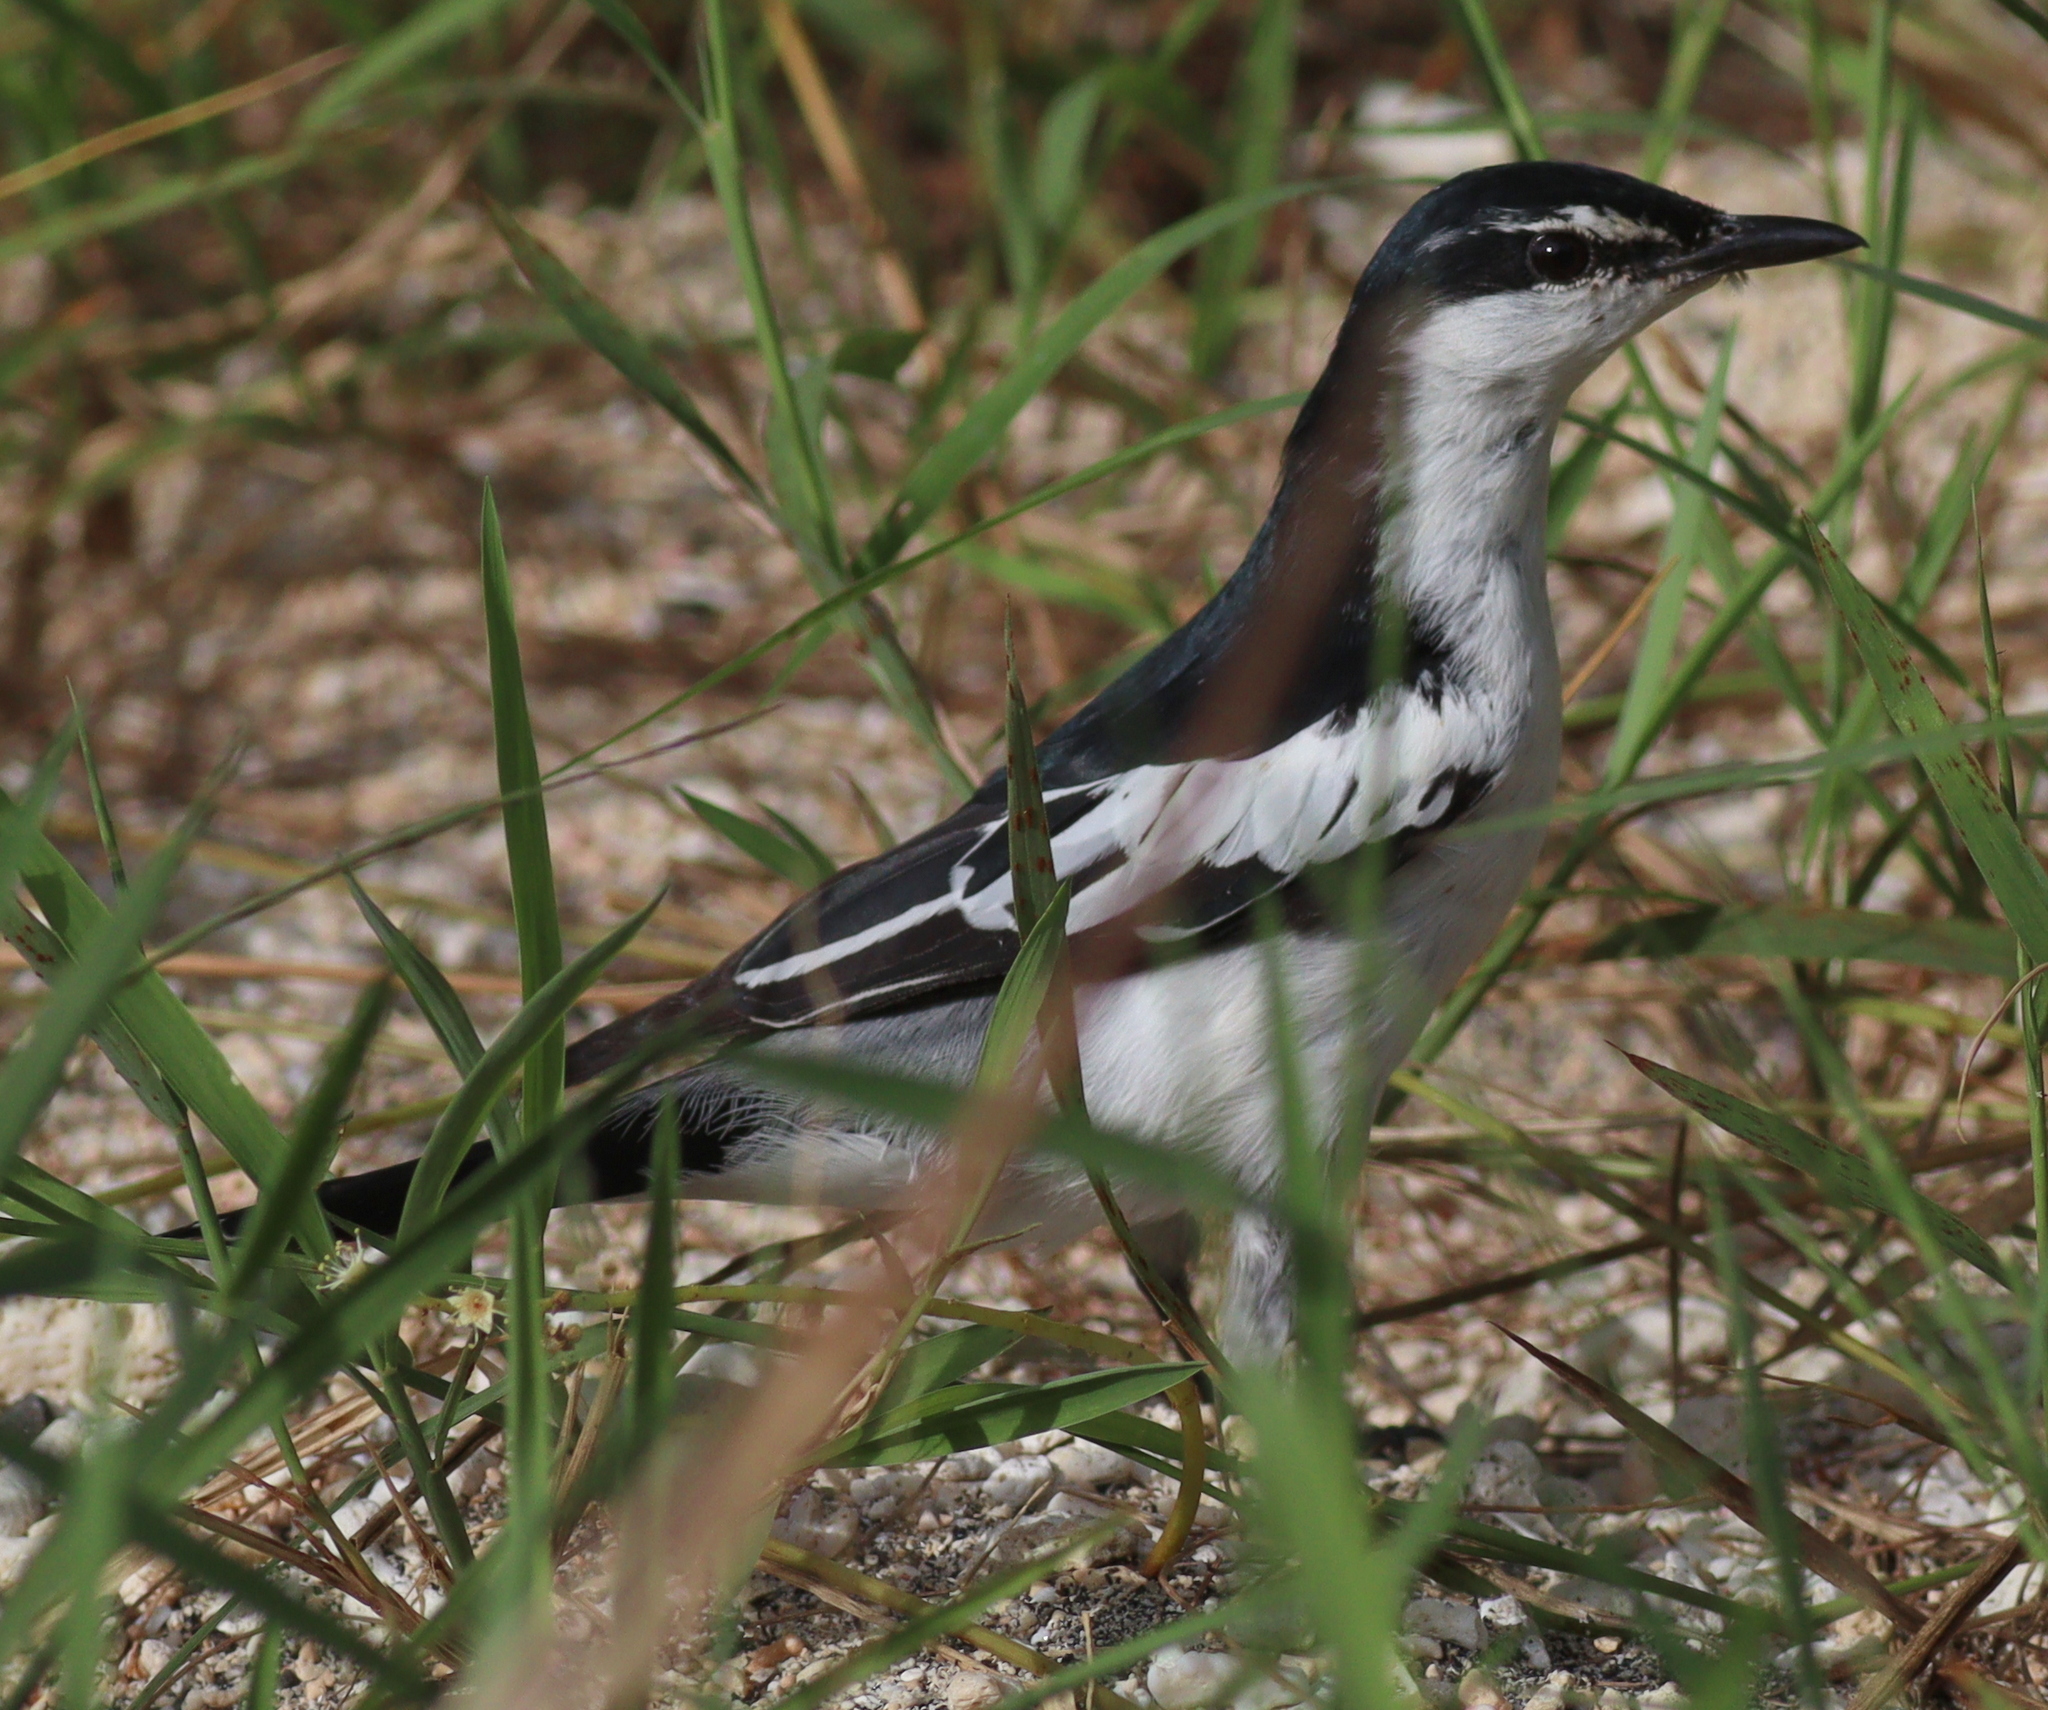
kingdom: Animalia
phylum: Chordata
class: Aves
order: Passeriformes
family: Campephagidae
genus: Lalage
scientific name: Lalage sueurii
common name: White-shouldered triller
